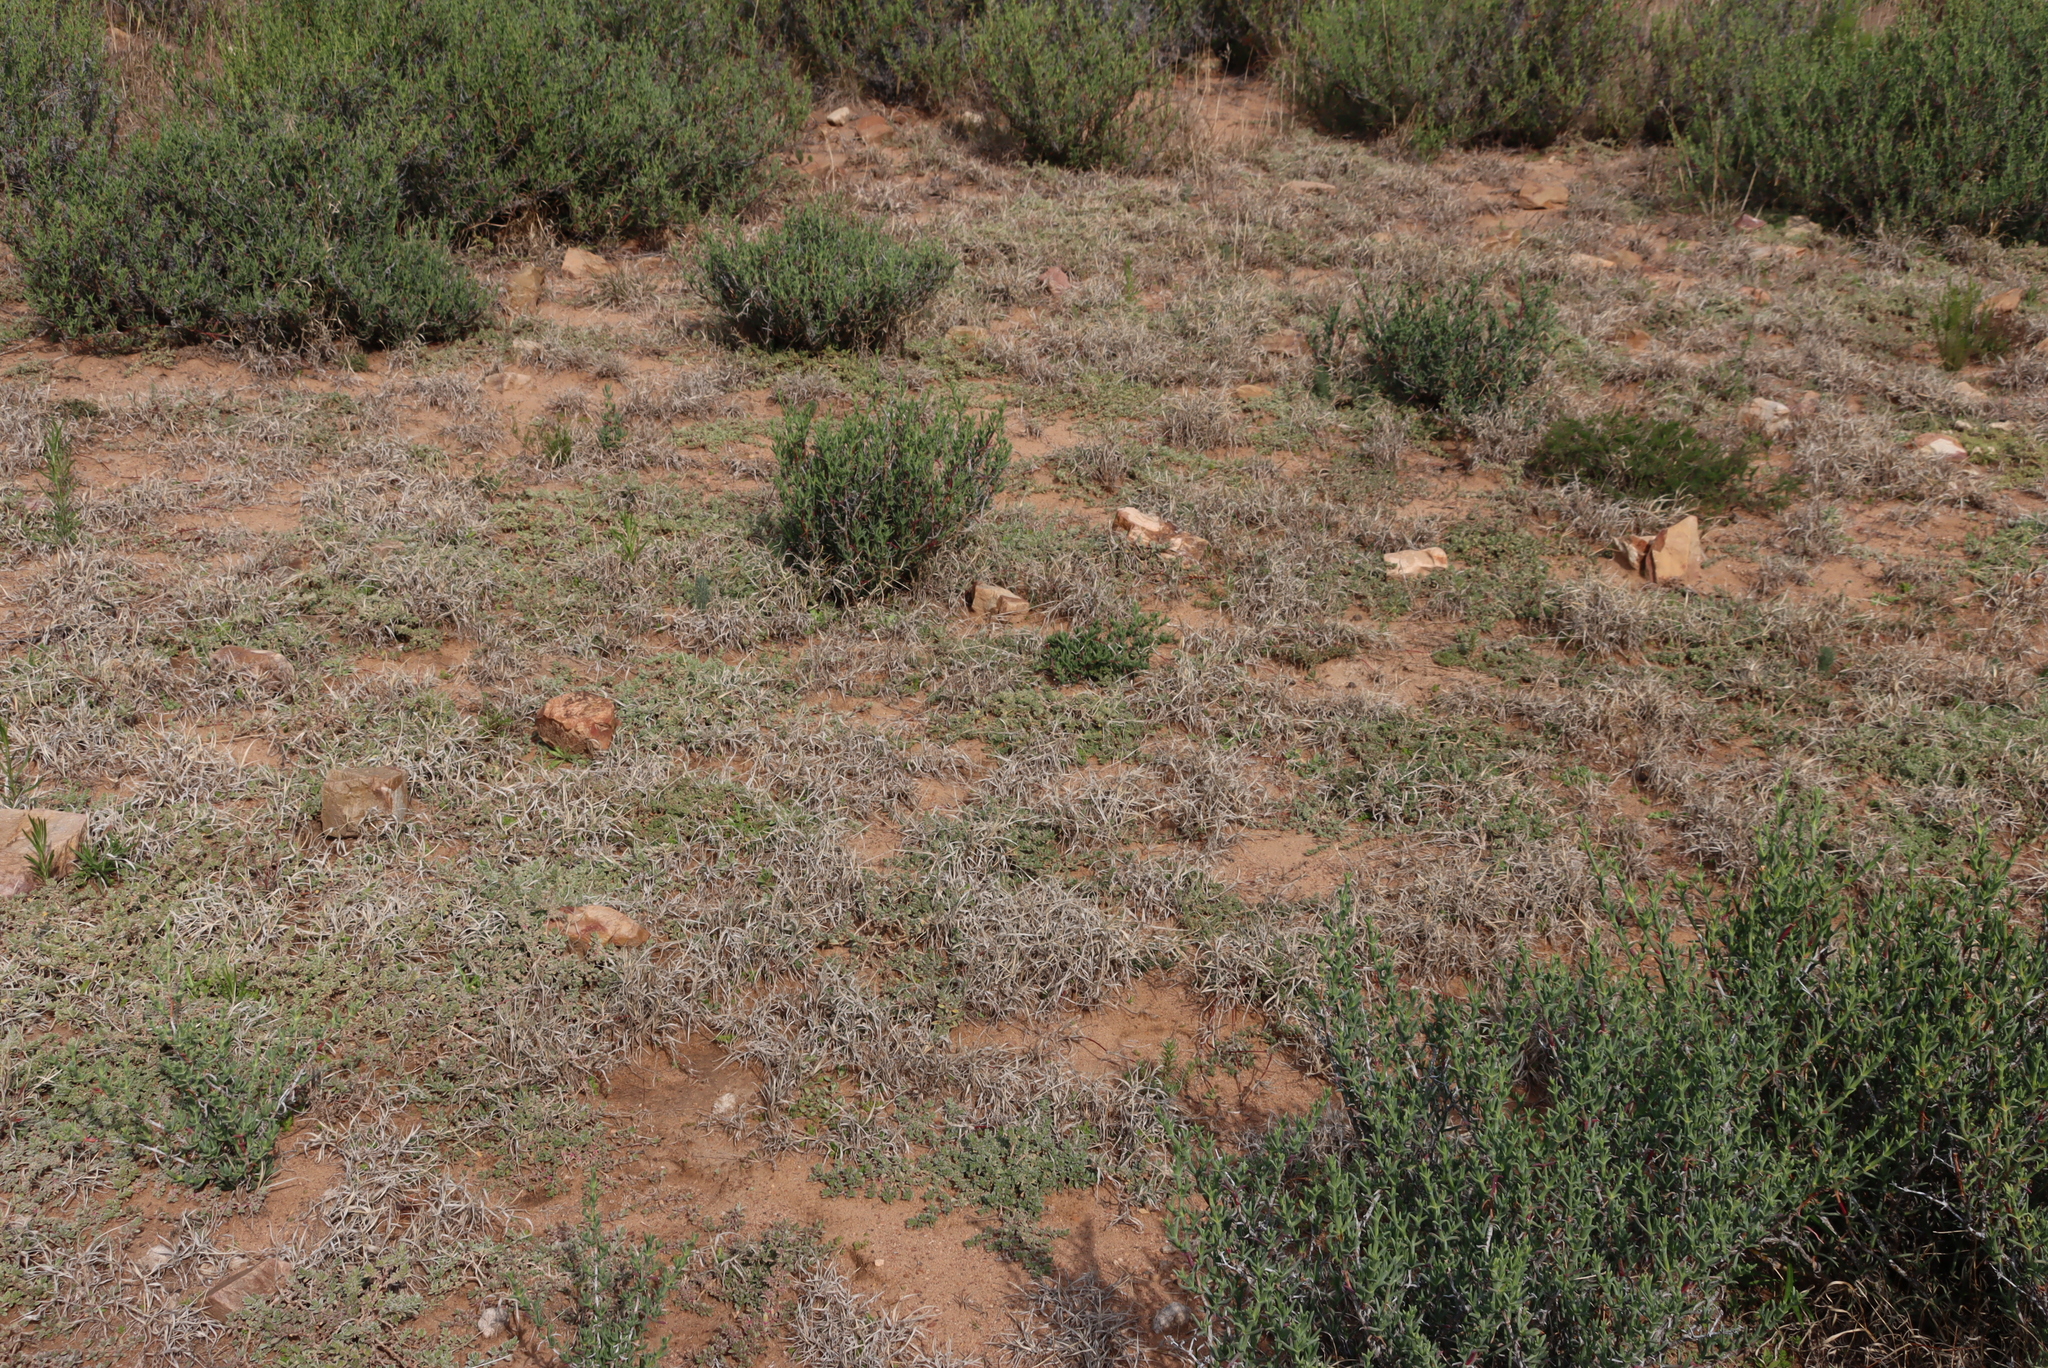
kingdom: Plantae
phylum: Tracheophyta
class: Magnoliopsida
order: Caryophyllales
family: Aizoaceae
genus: Aizoon
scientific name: Aizoon glinoides
